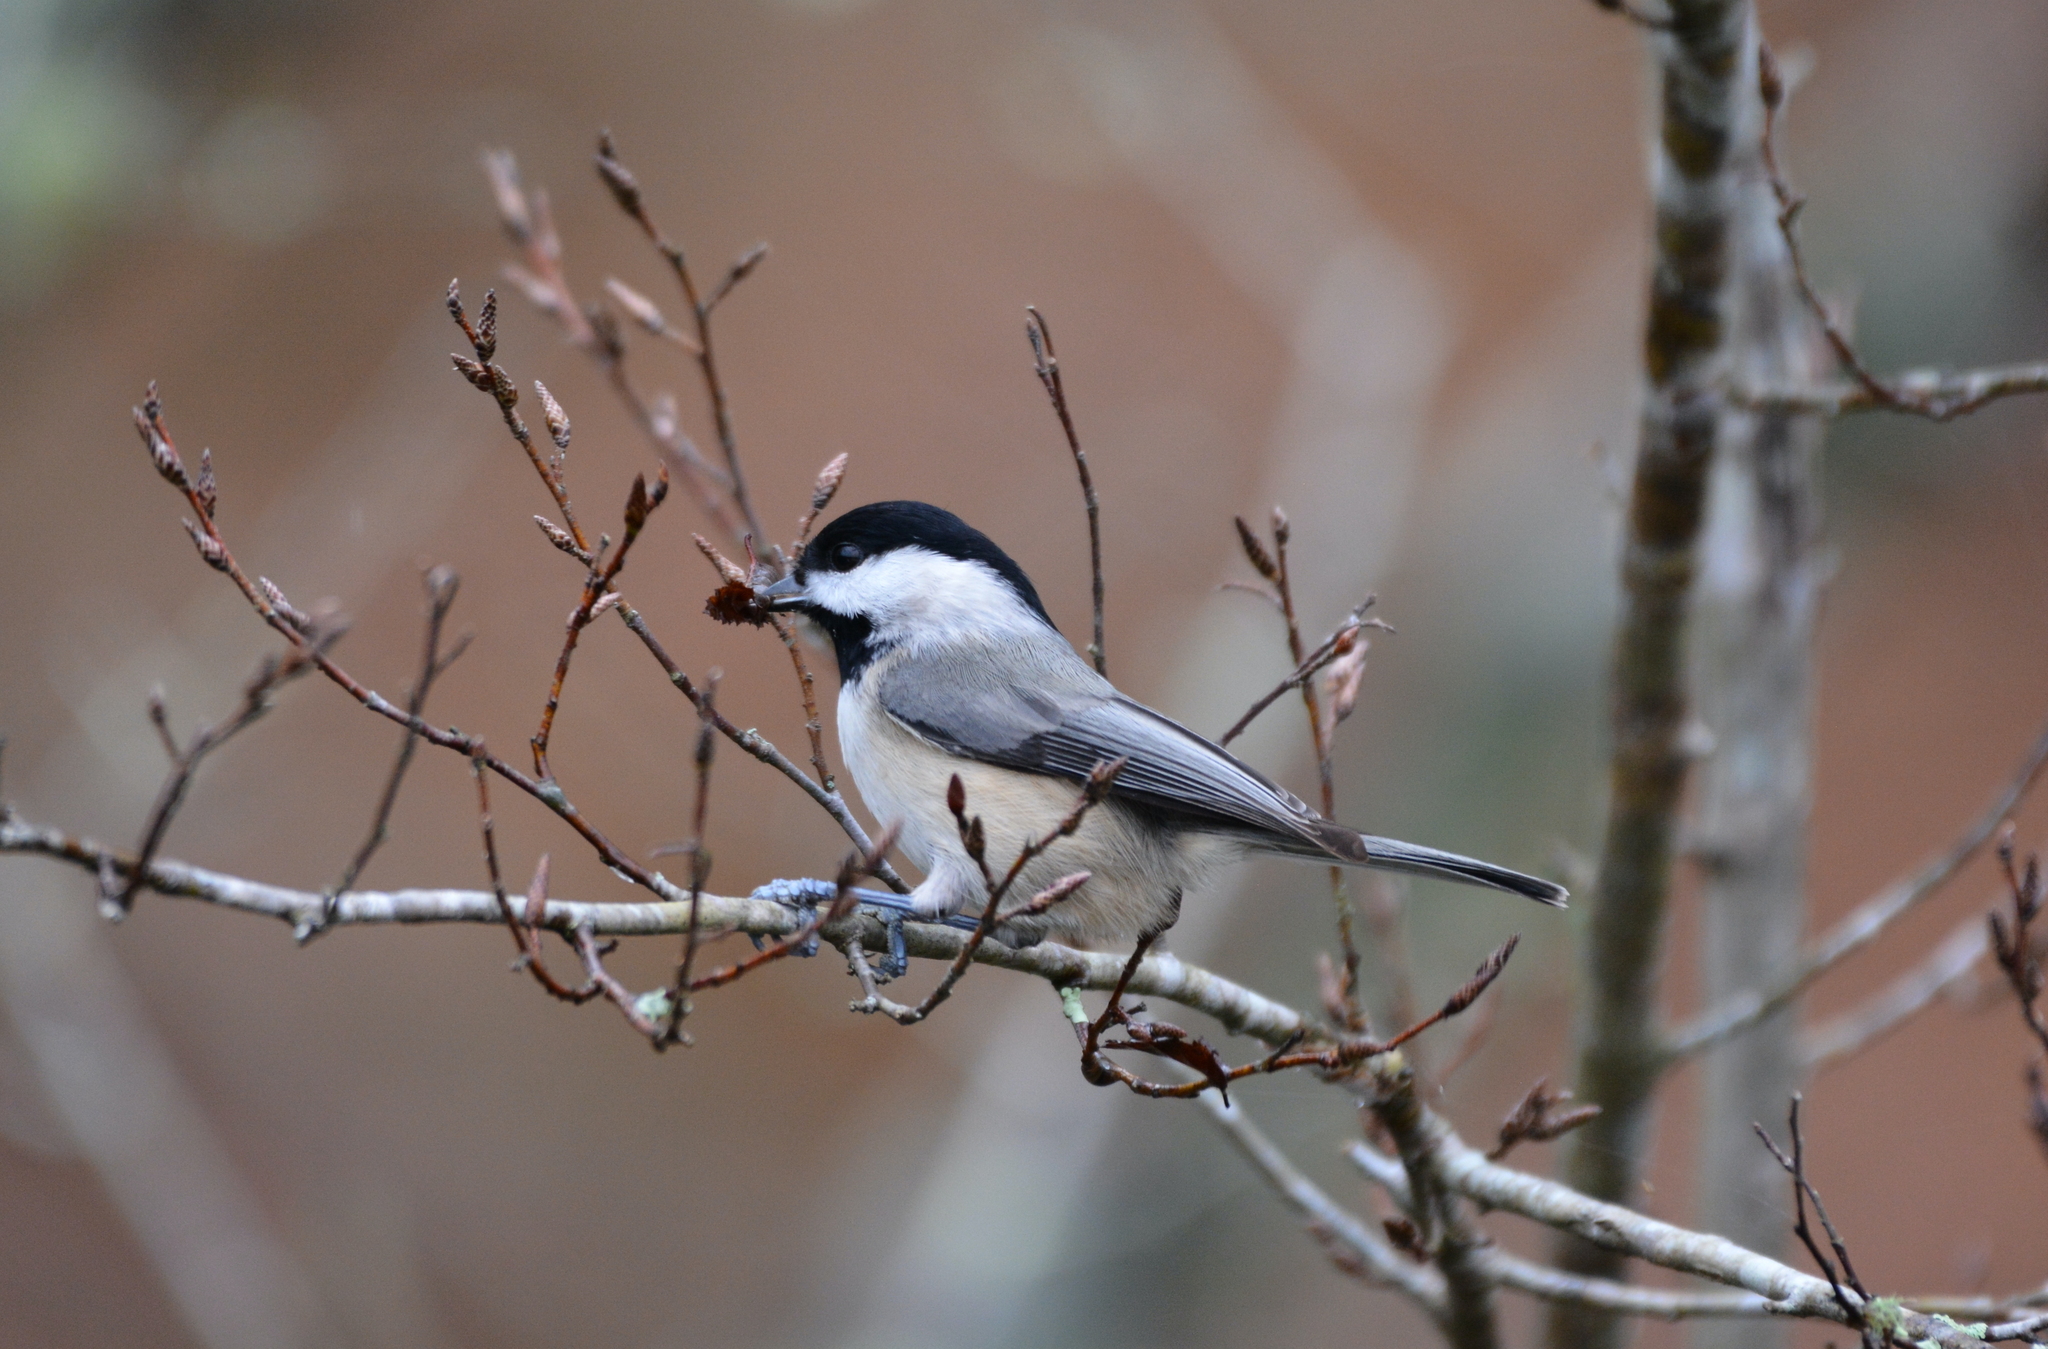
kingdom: Animalia
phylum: Chordata
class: Aves
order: Passeriformes
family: Paridae
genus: Poecile
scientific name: Poecile carolinensis
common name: Carolina chickadee
